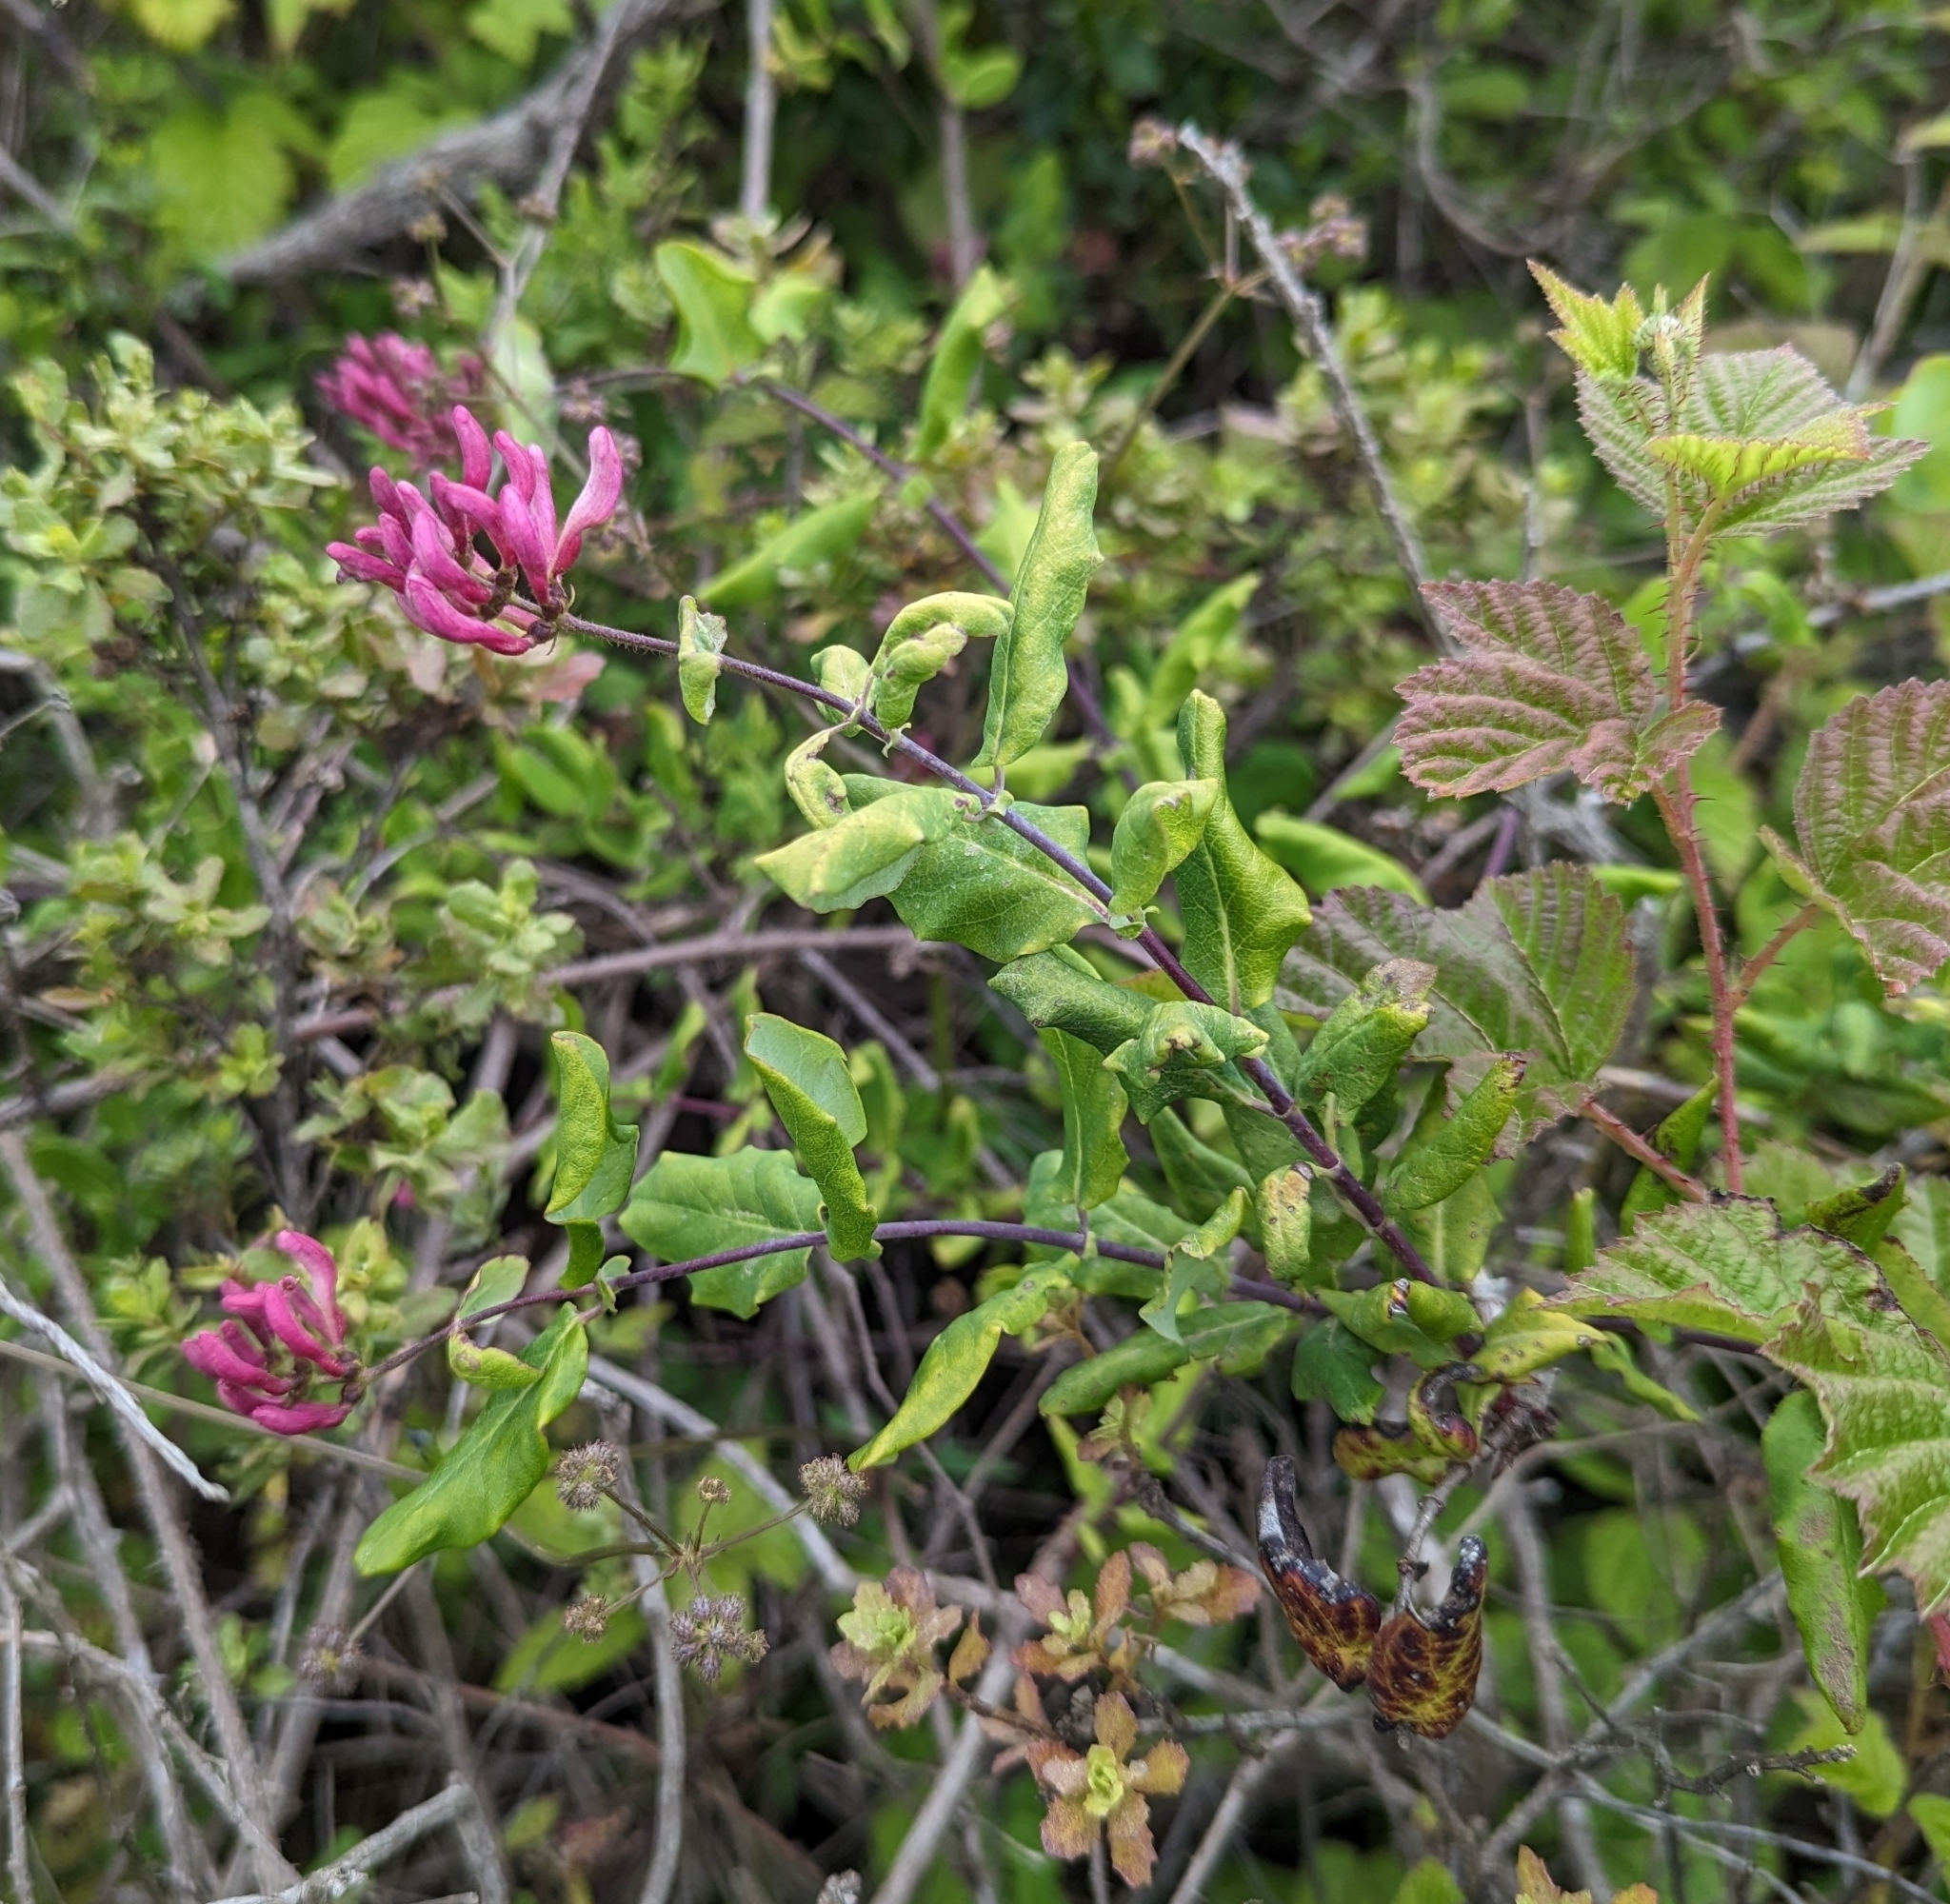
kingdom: Plantae
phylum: Tracheophyta
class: Magnoliopsida
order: Dipsacales
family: Caprifoliaceae
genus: Lonicera
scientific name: Lonicera hispidula
